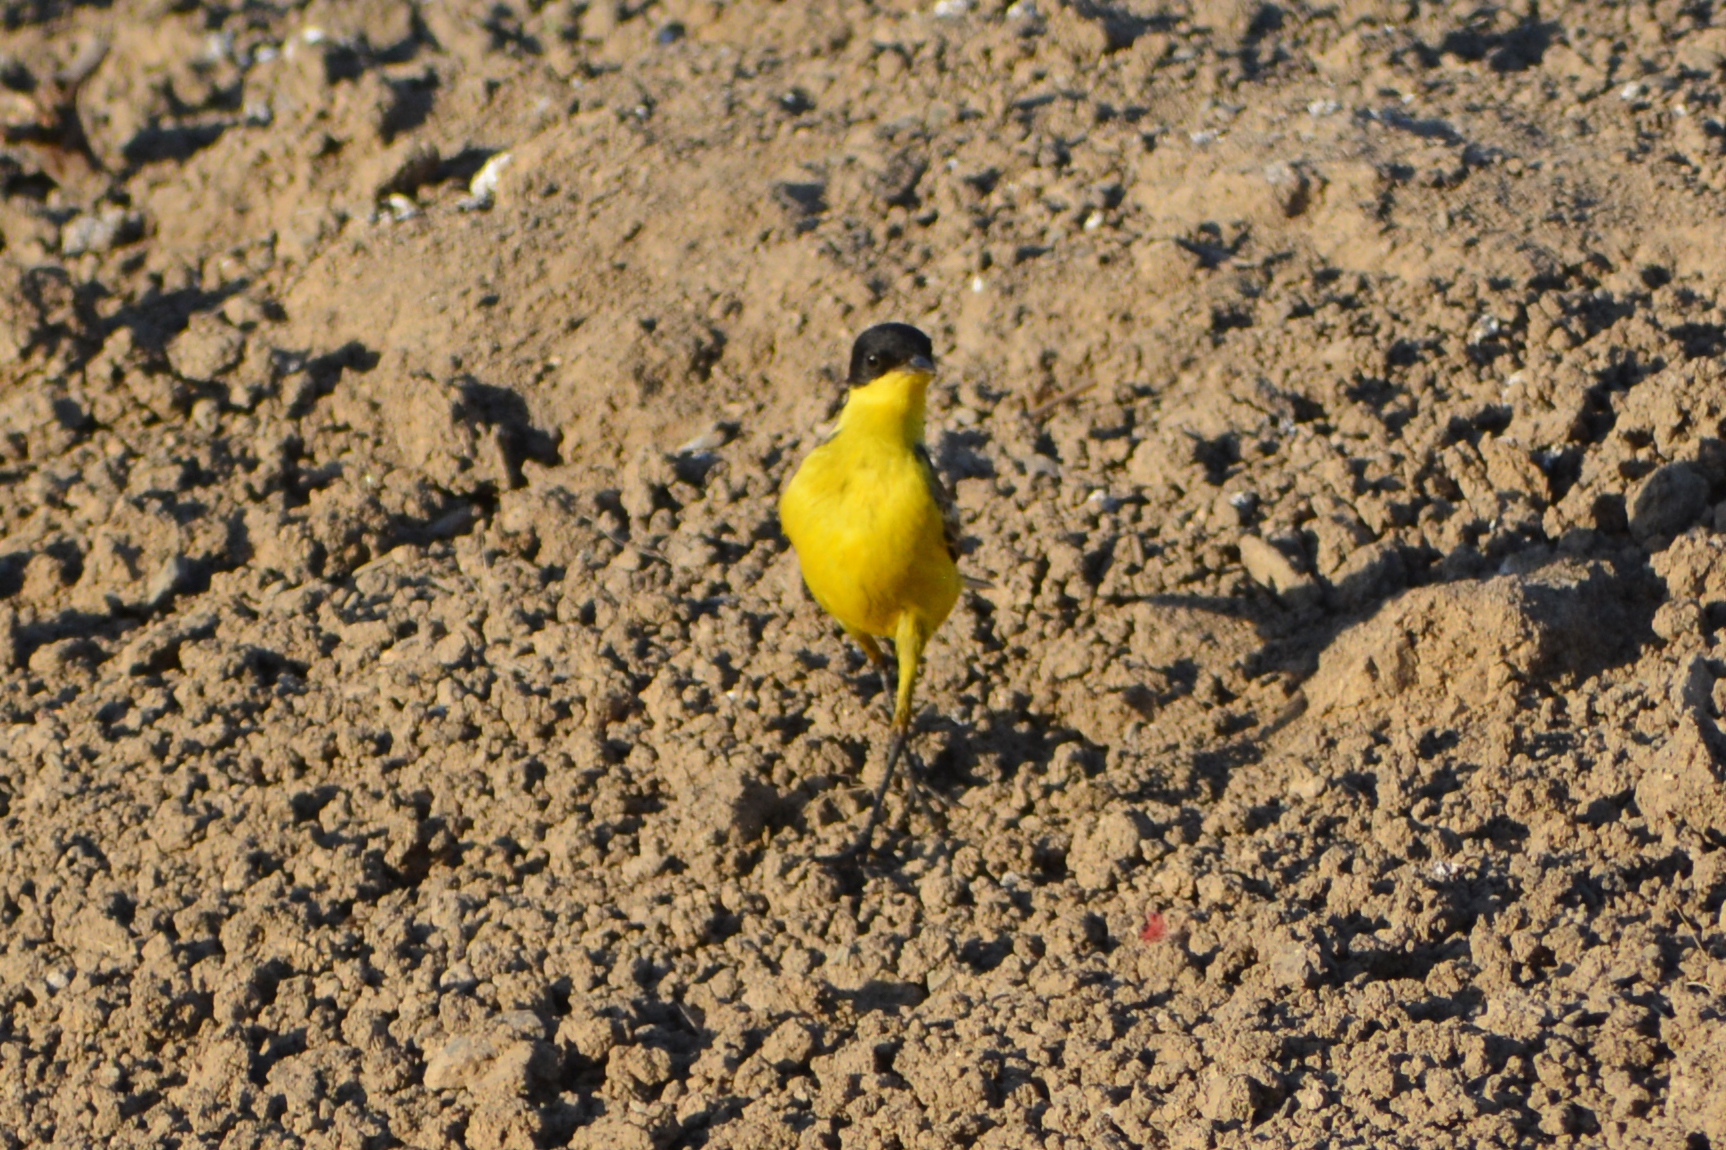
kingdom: Animalia
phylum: Chordata
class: Aves
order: Passeriformes
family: Motacillidae
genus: Motacilla
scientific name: Motacilla flava
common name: Western yellow wagtail
